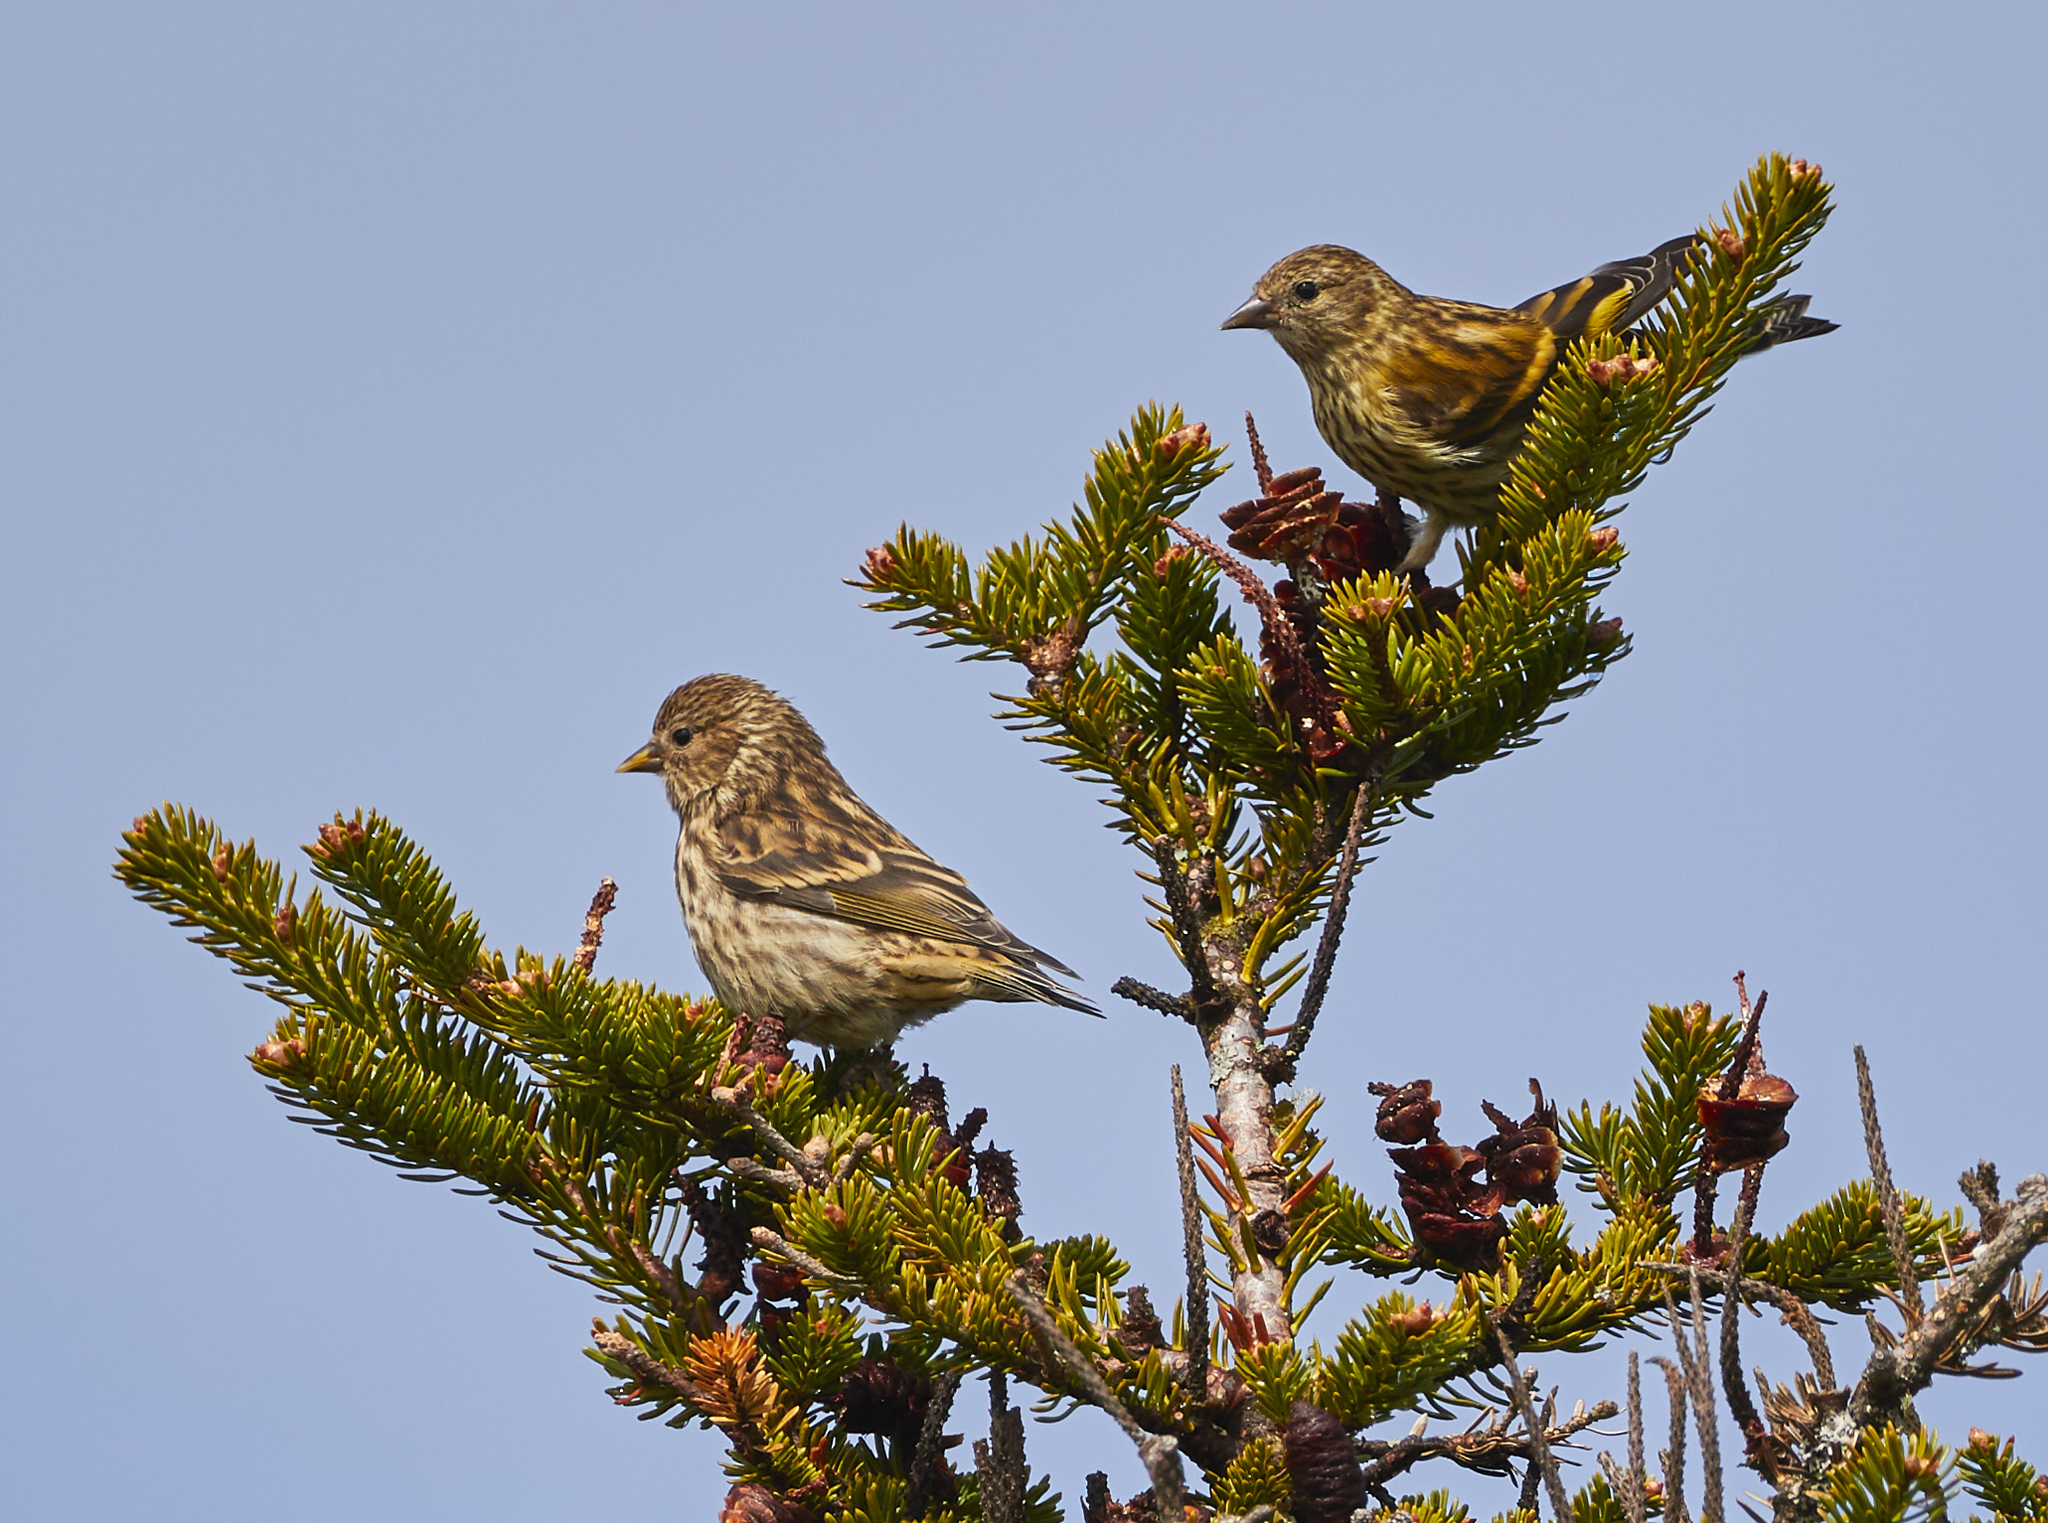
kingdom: Animalia
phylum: Chordata
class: Aves
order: Passeriformes
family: Fringillidae
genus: Spinus
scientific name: Spinus pinus
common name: Pine siskin
